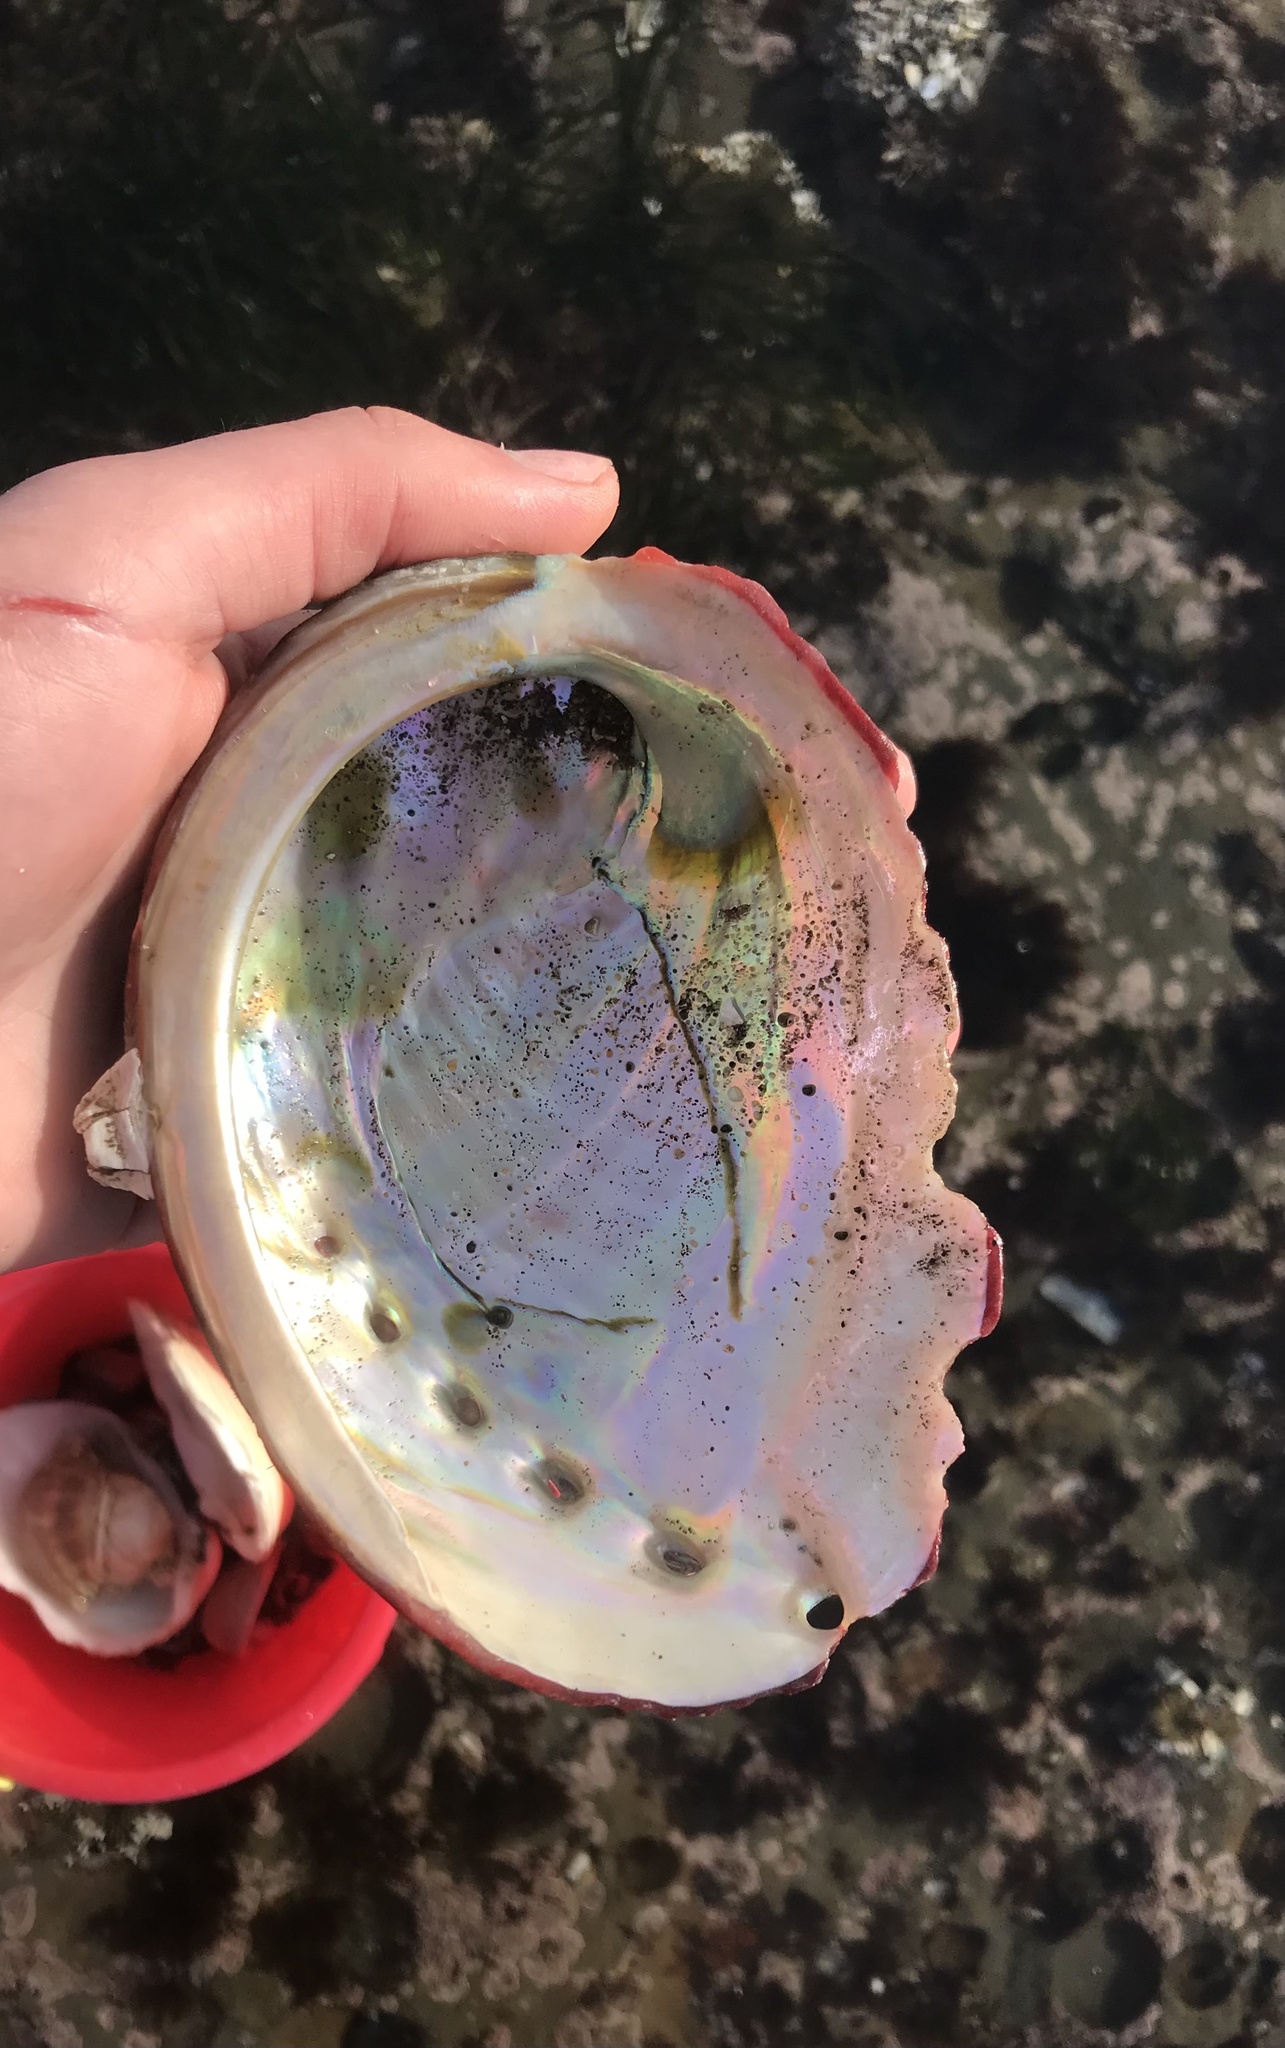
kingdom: Animalia
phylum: Mollusca
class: Gastropoda
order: Lepetellida
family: Haliotidae
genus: Haliotis
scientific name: Haliotis rufescens
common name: Red abalone
